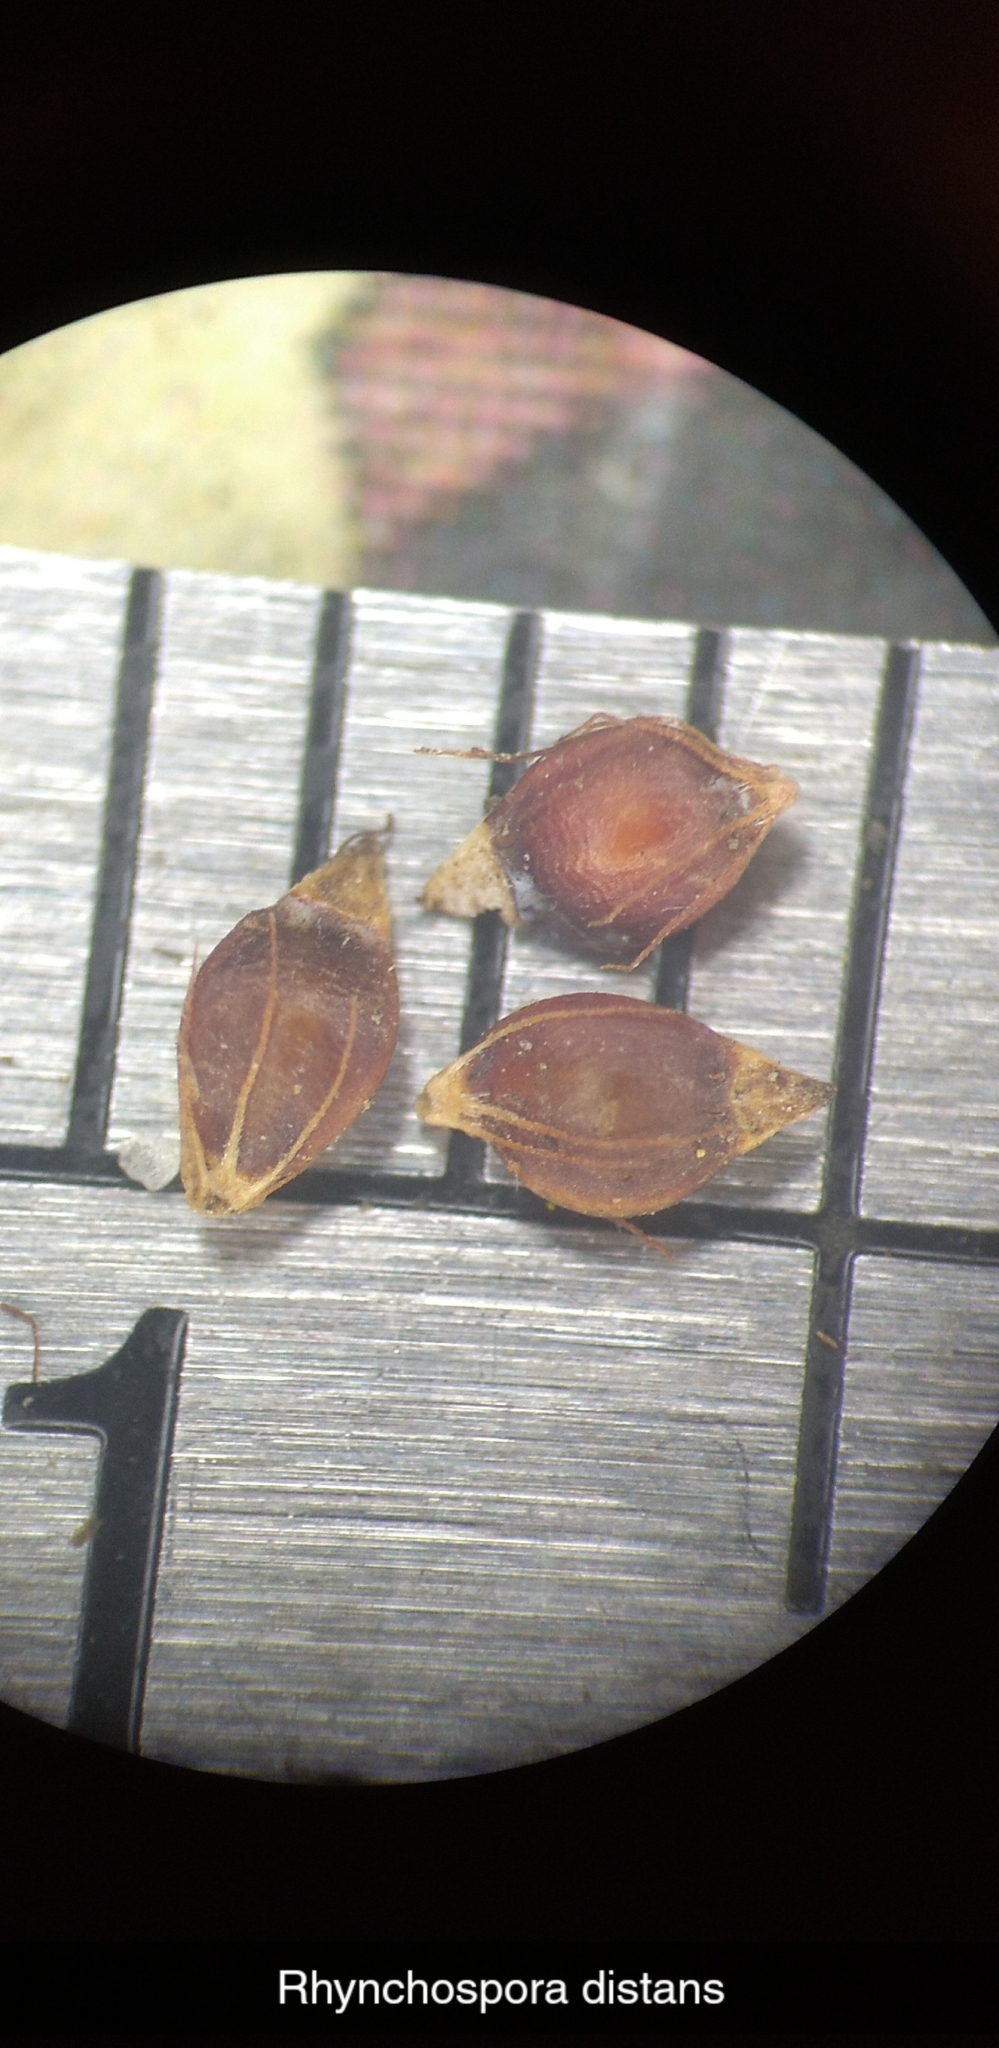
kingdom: Plantae
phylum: Tracheophyta
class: Liliopsida
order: Poales
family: Cyperaceae
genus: Rhynchospora
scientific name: Rhynchospora fascicularis
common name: Fascicled beak sedge
